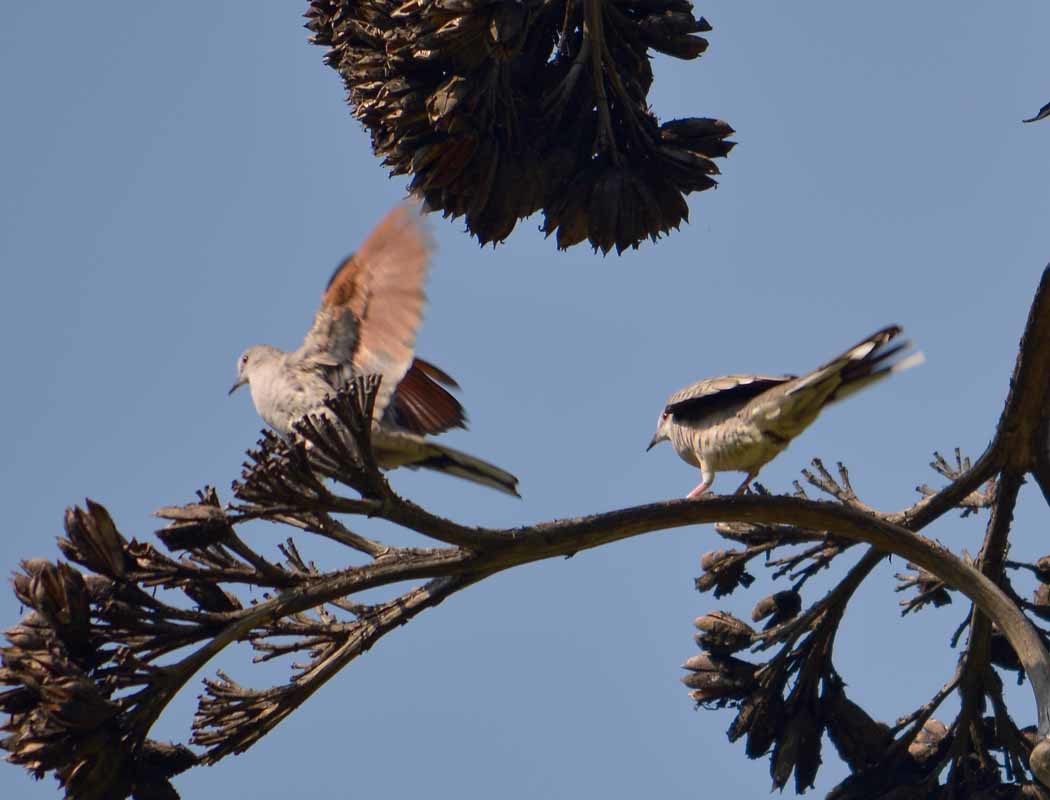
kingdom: Animalia
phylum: Chordata
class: Aves
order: Columbiformes
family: Columbidae
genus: Columbina
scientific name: Columbina inca
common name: Inca dove
